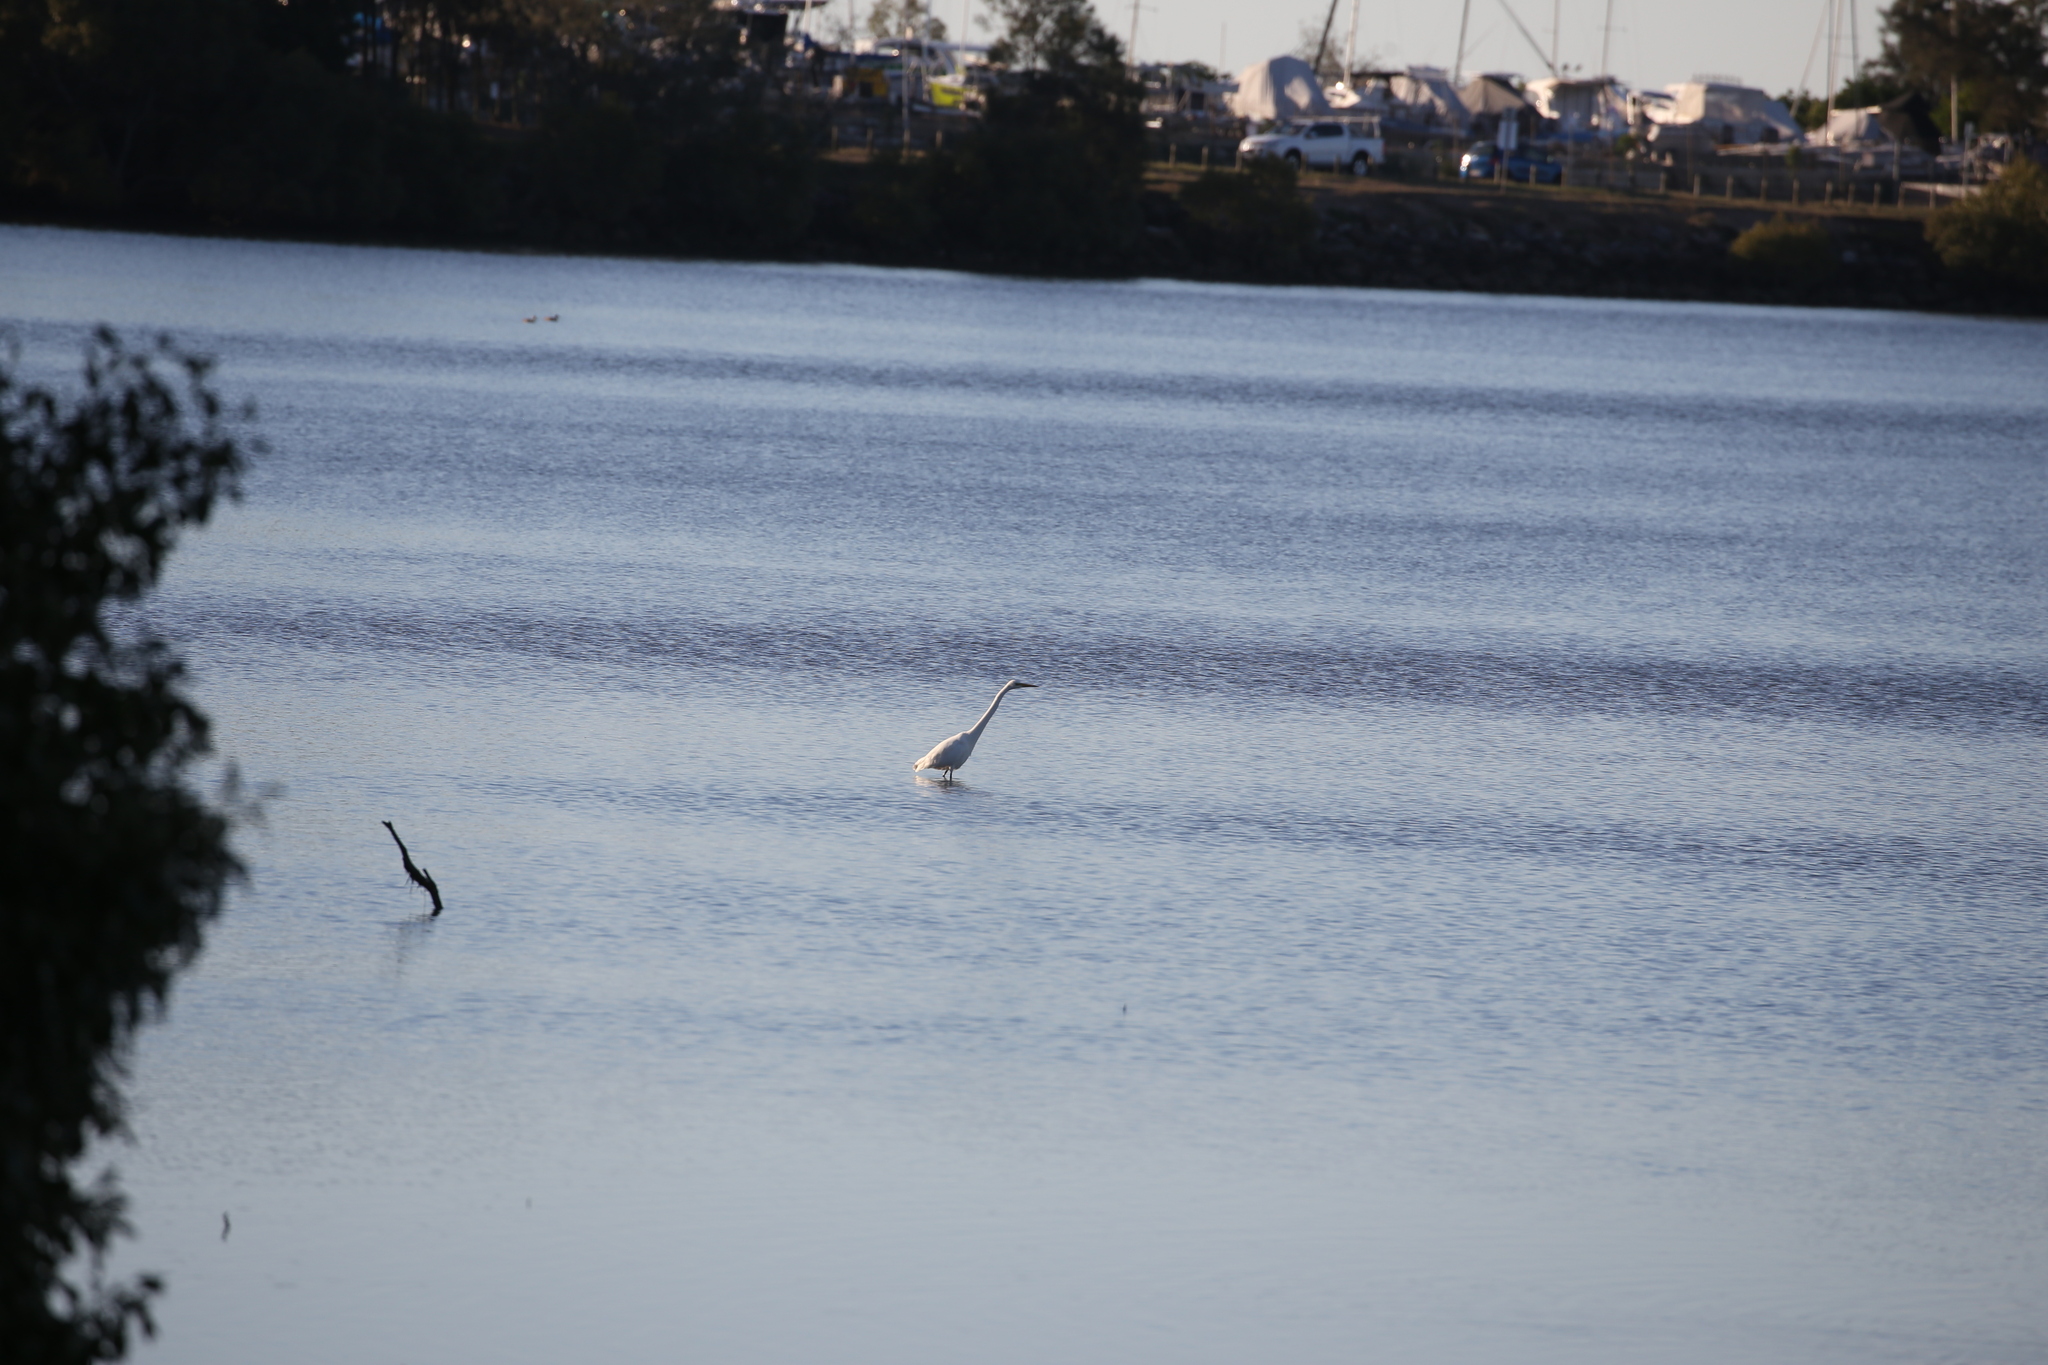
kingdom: Animalia
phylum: Chordata
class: Aves
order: Pelecaniformes
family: Ardeidae
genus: Ardea
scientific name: Ardea alba
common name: Great egret
